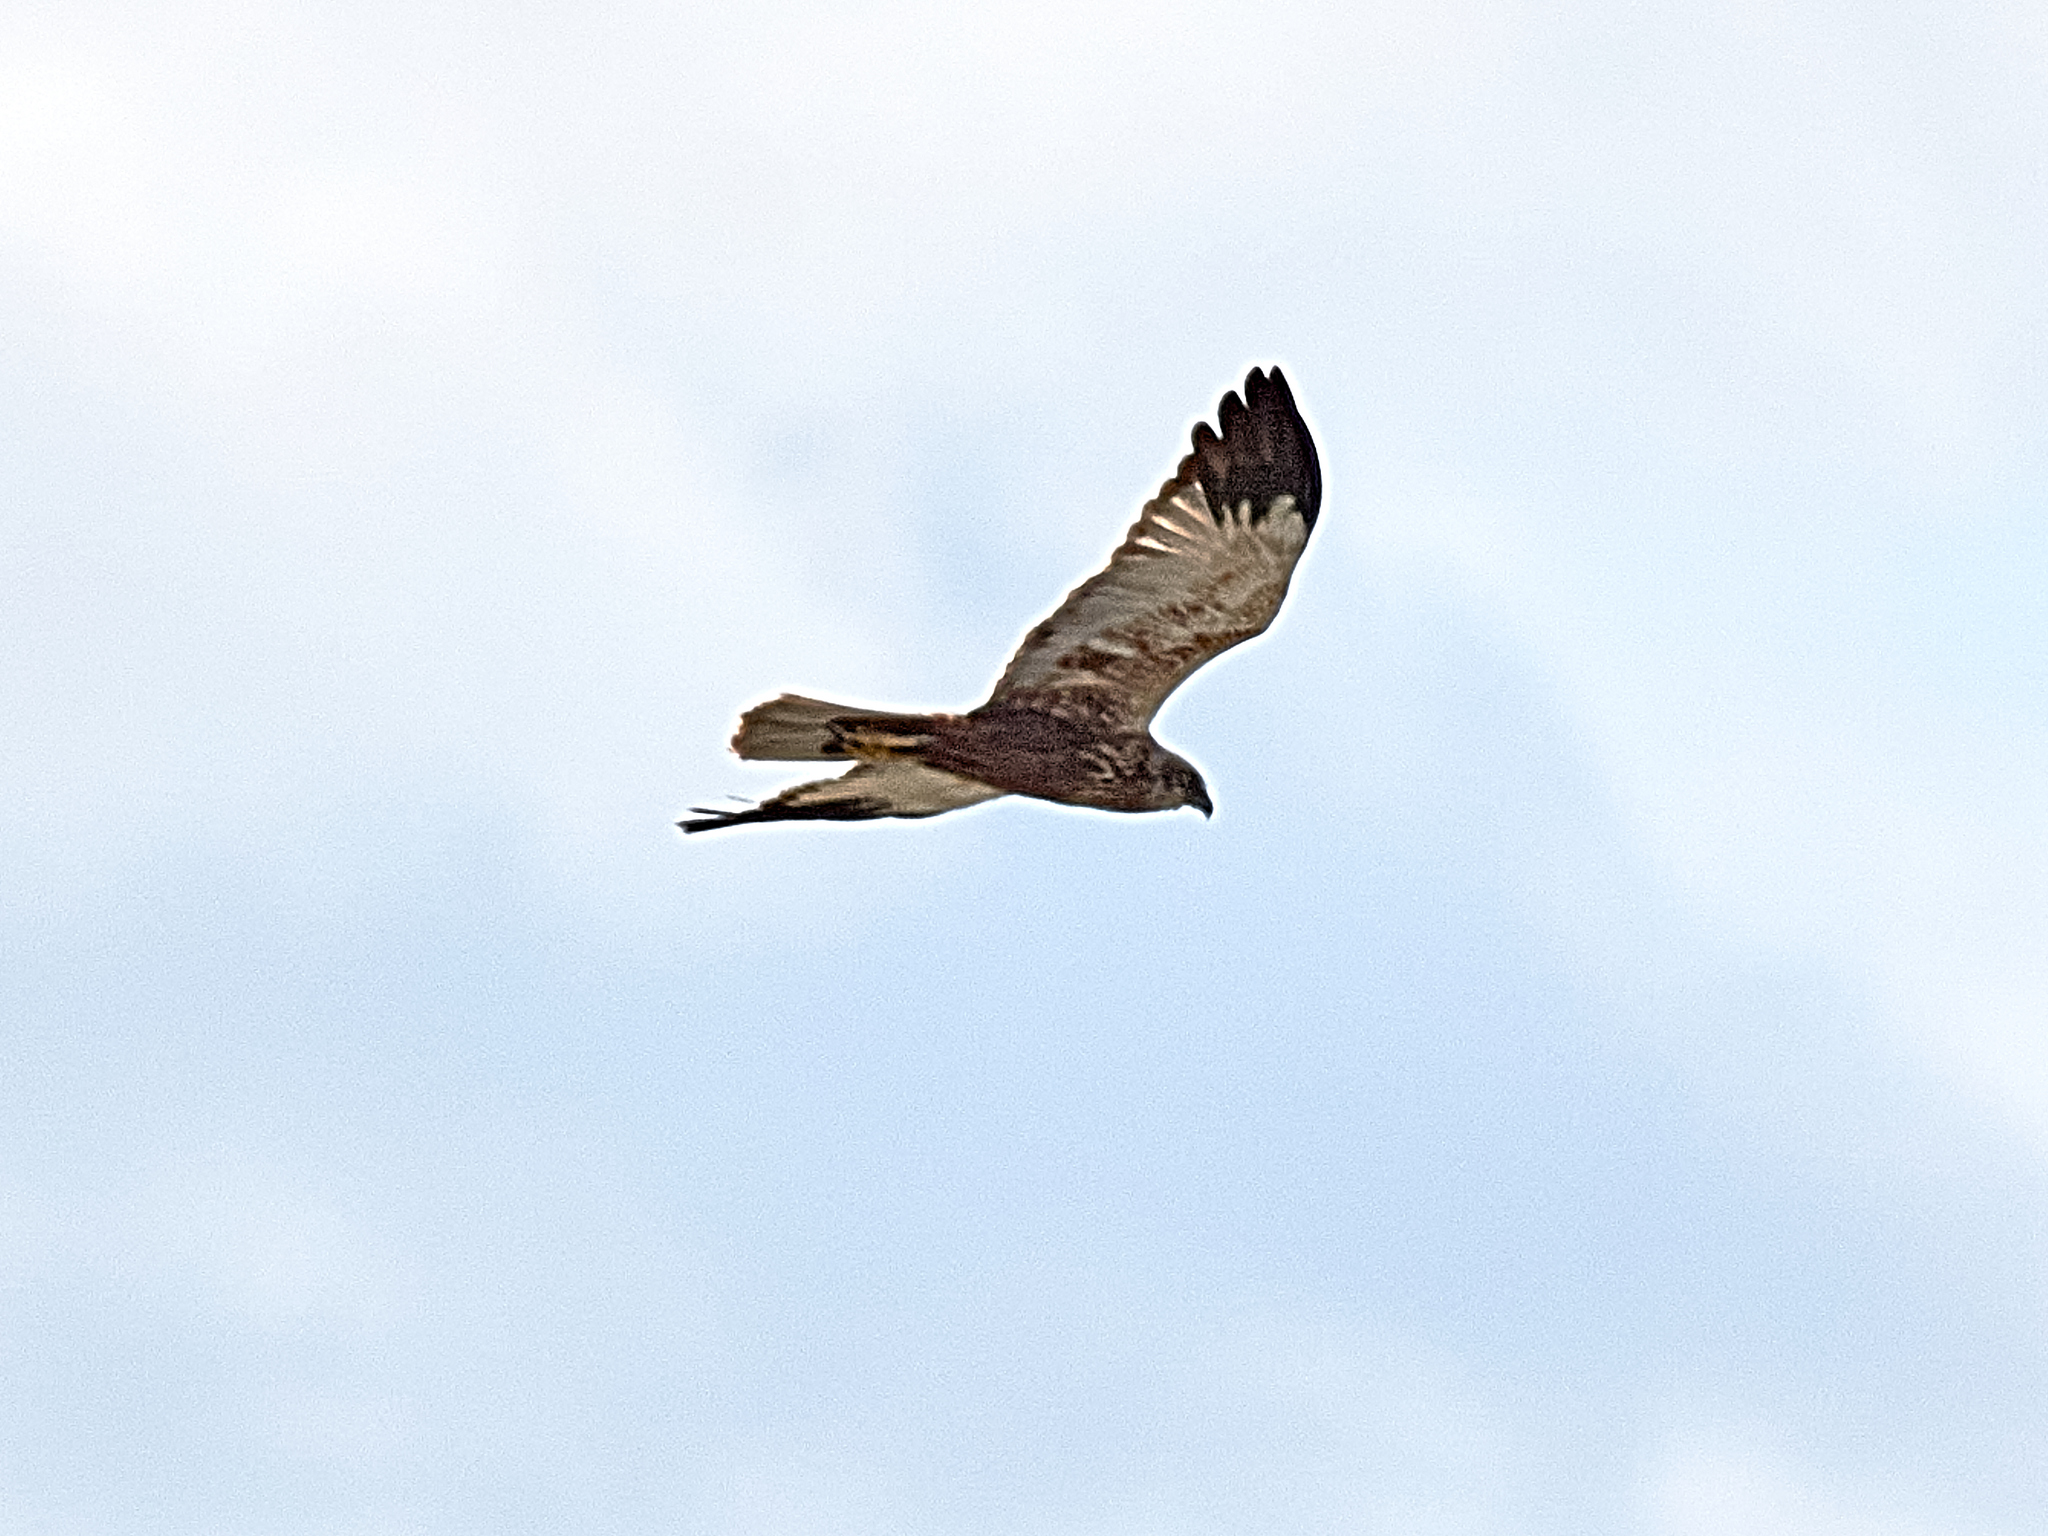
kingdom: Animalia
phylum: Chordata
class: Aves
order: Accipitriformes
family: Accipitridae
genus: Circus
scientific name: Circus aeruginosus
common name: Western marsh harrier
